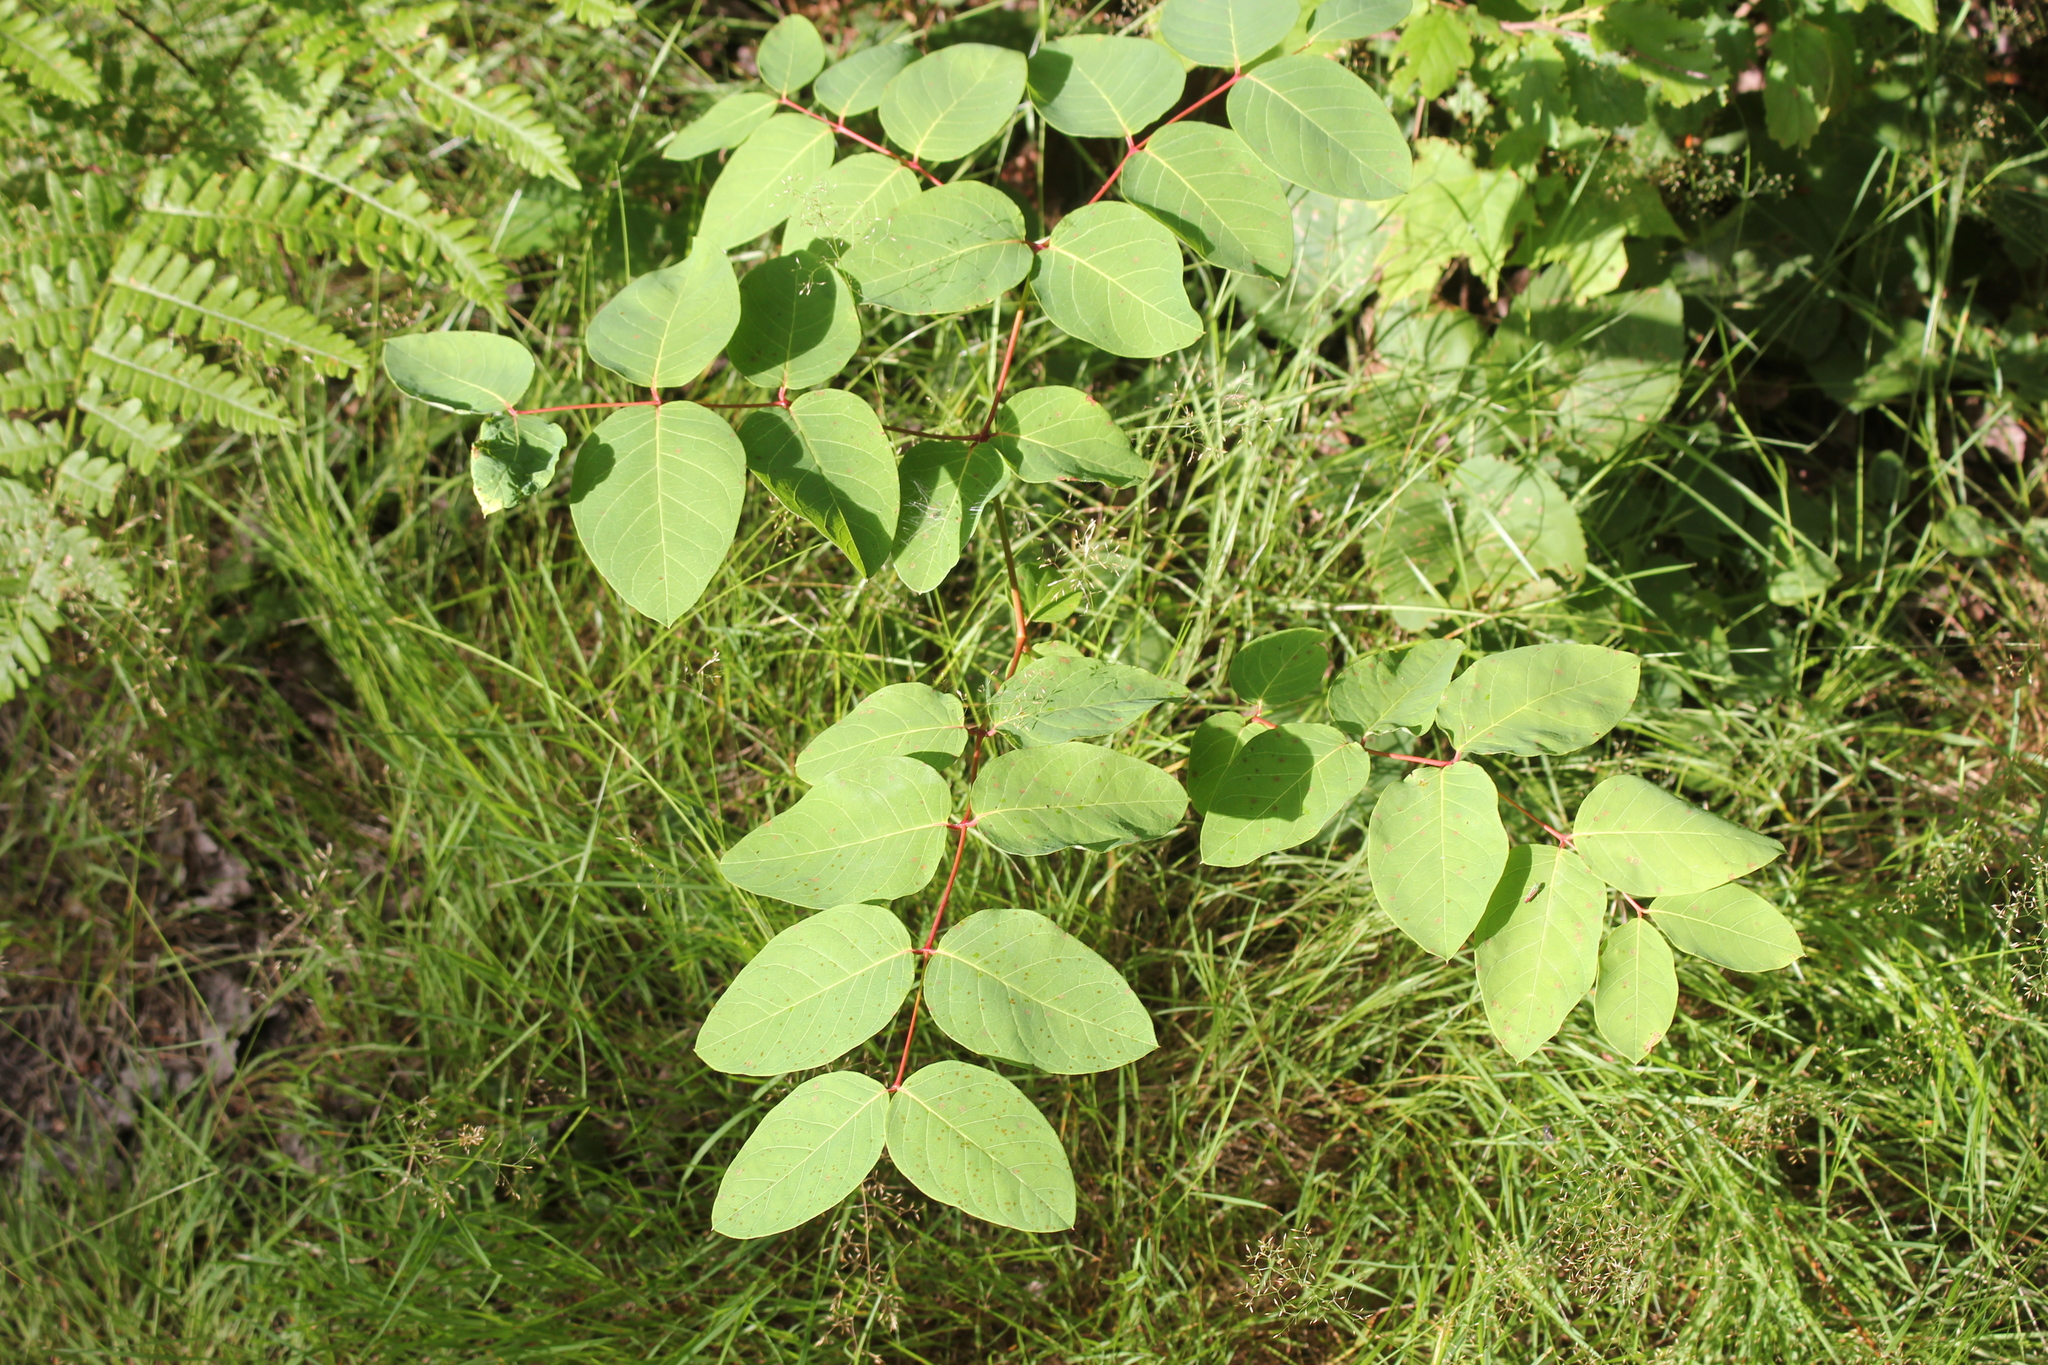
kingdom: Plantae
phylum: Tracheophyta
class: Magnoliopsida
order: Gentianales
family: Apocynaceae
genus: Apocynum
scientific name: Apocynum androsaemifolium
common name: Spreading dogbane
